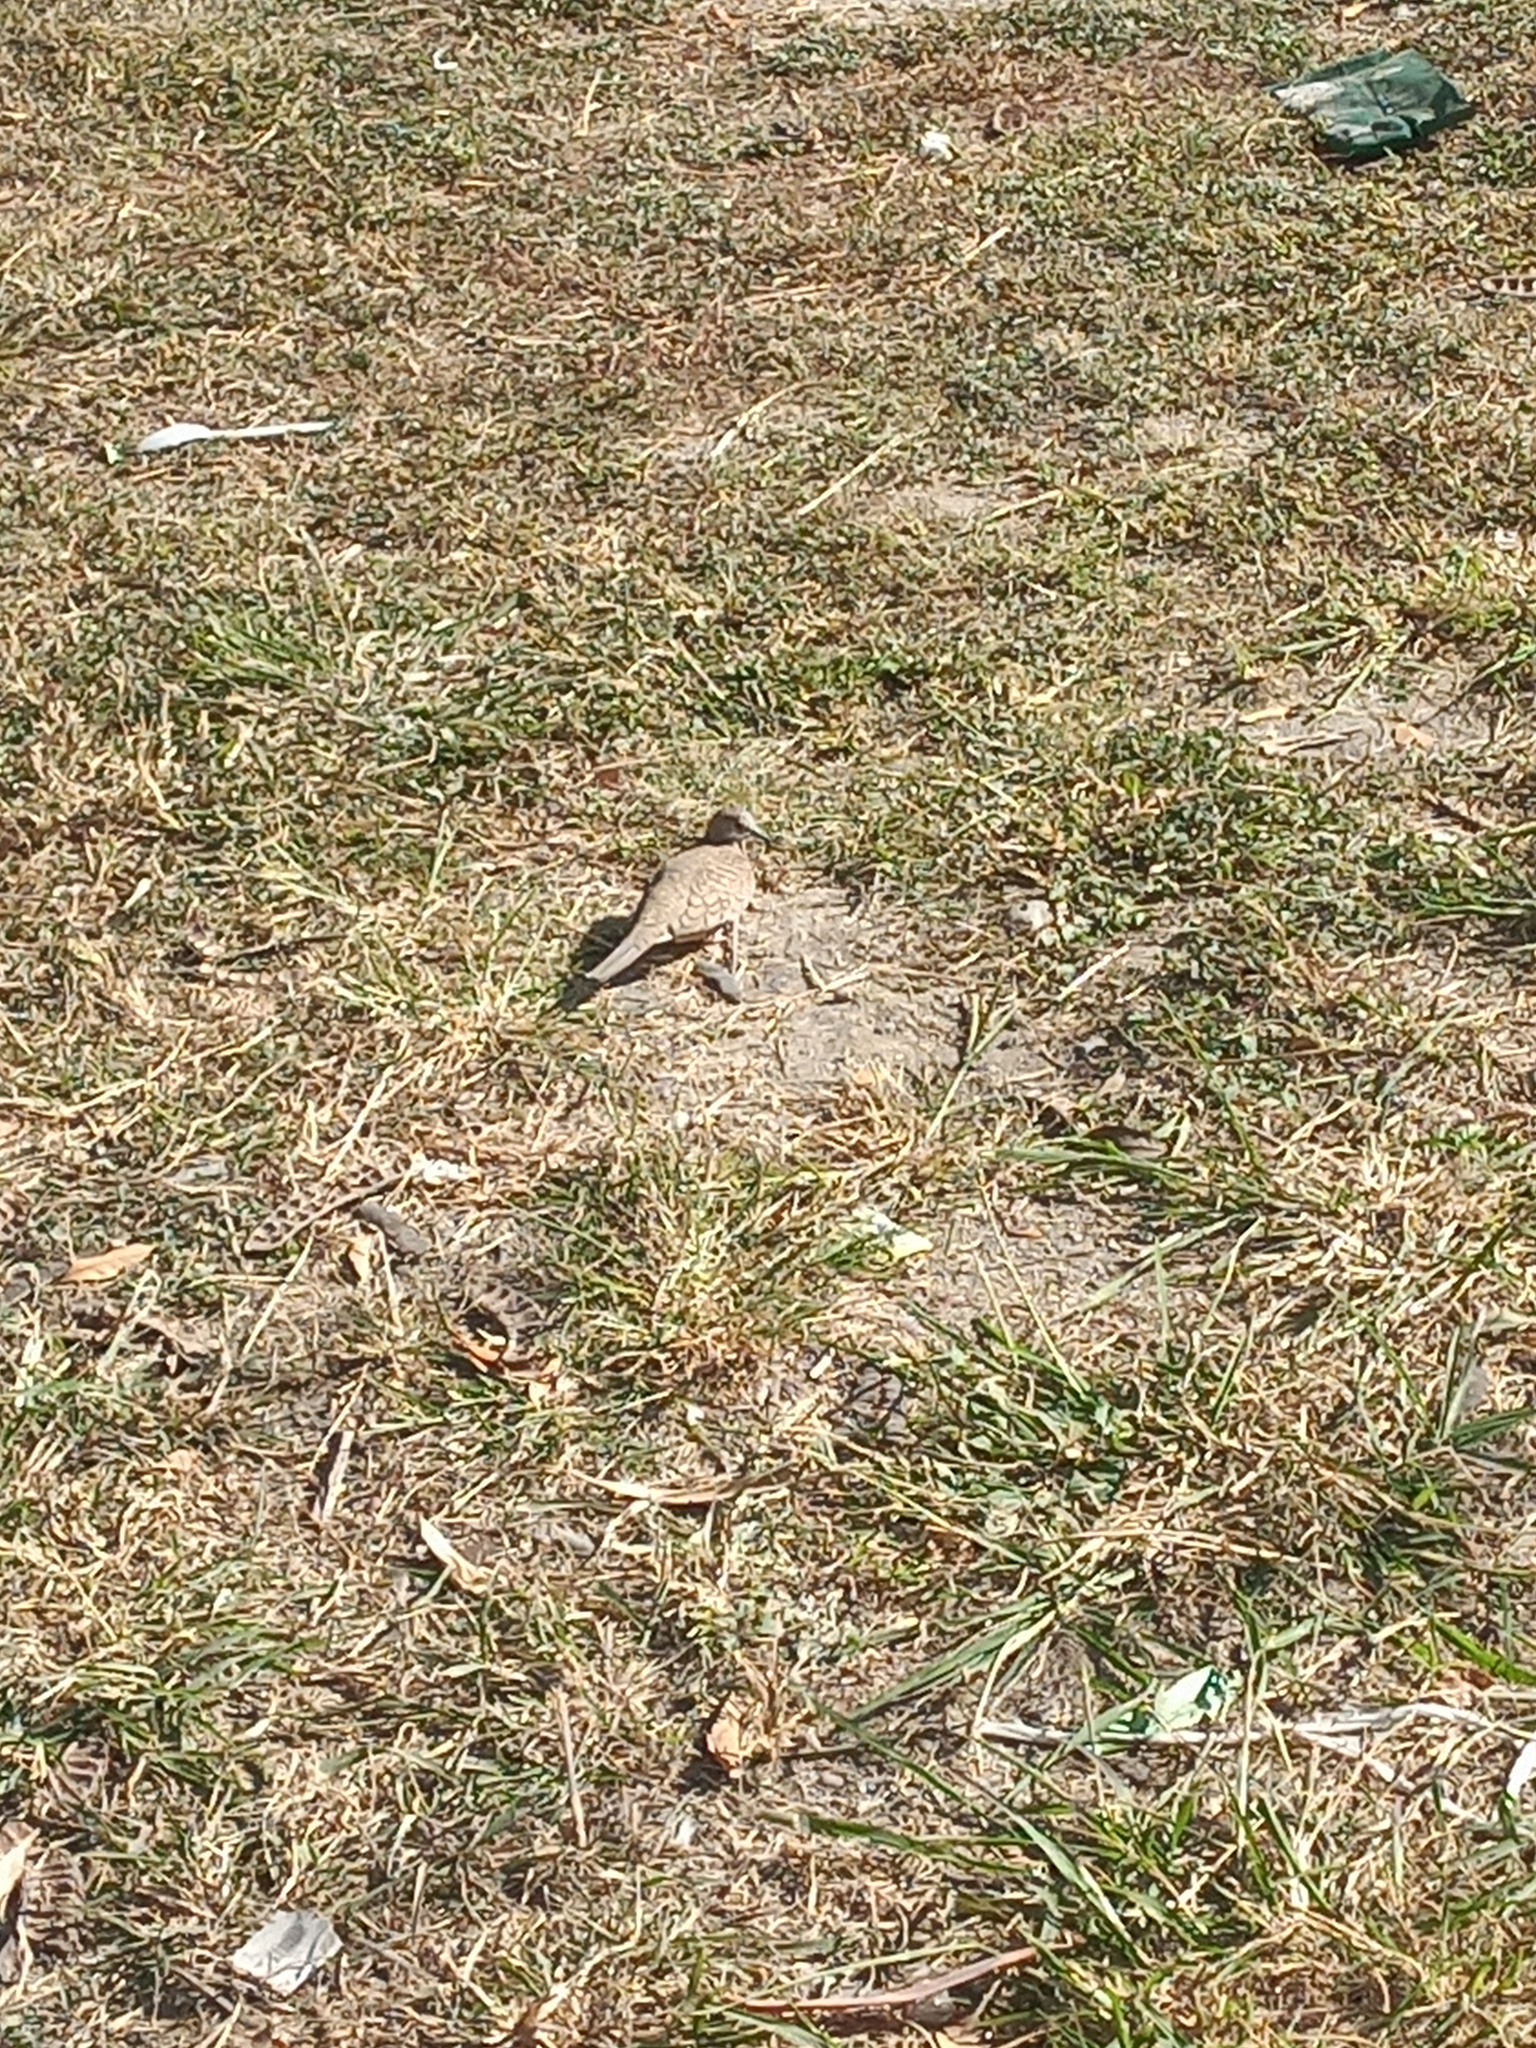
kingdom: Animalia
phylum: Chordata
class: Aves
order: Columbiformes
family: Columbidae
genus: Columbina
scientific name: Columbina inca
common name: Inca dove
